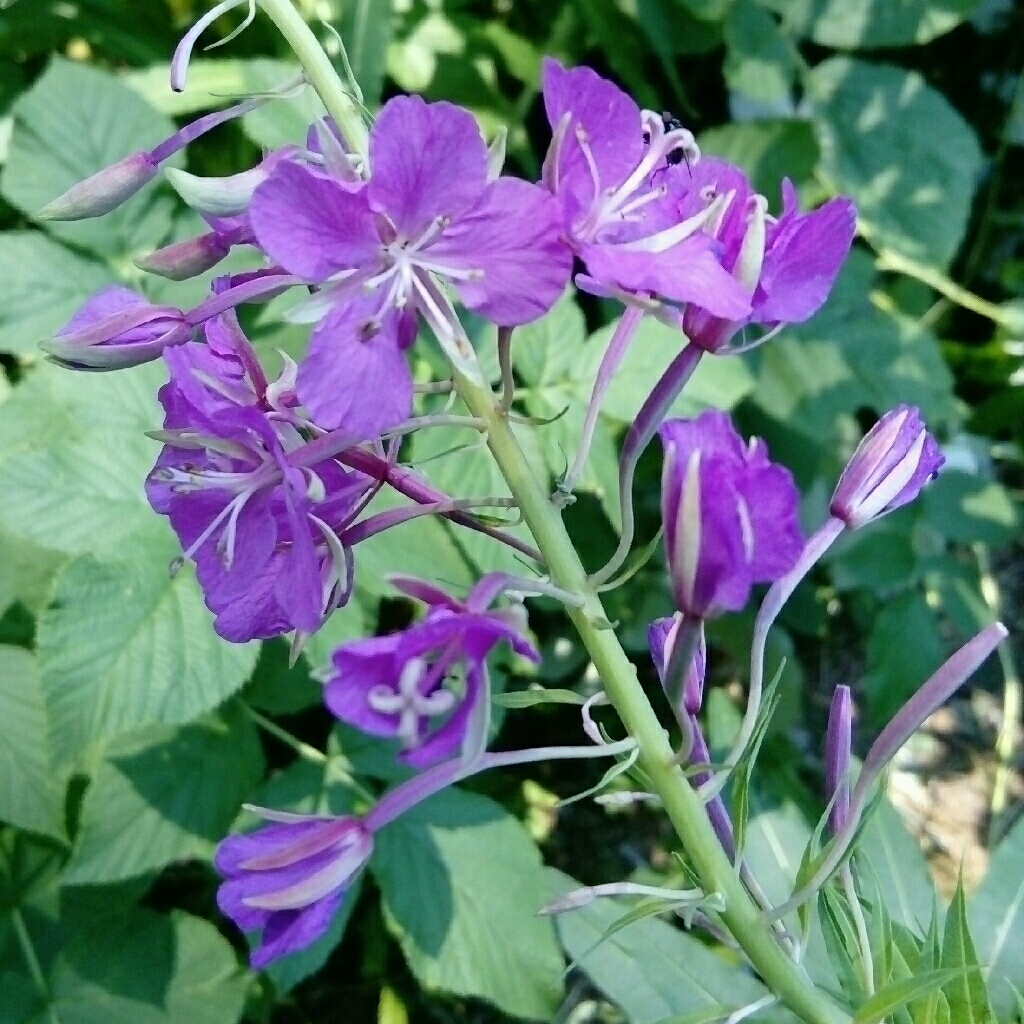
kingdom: Plantae
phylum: Tracheophyta
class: Magnoliopsida
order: Myrtales
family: Onagraceae
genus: Chamaenerion
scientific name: Chamaenerion angustifolium
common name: Fireweed
